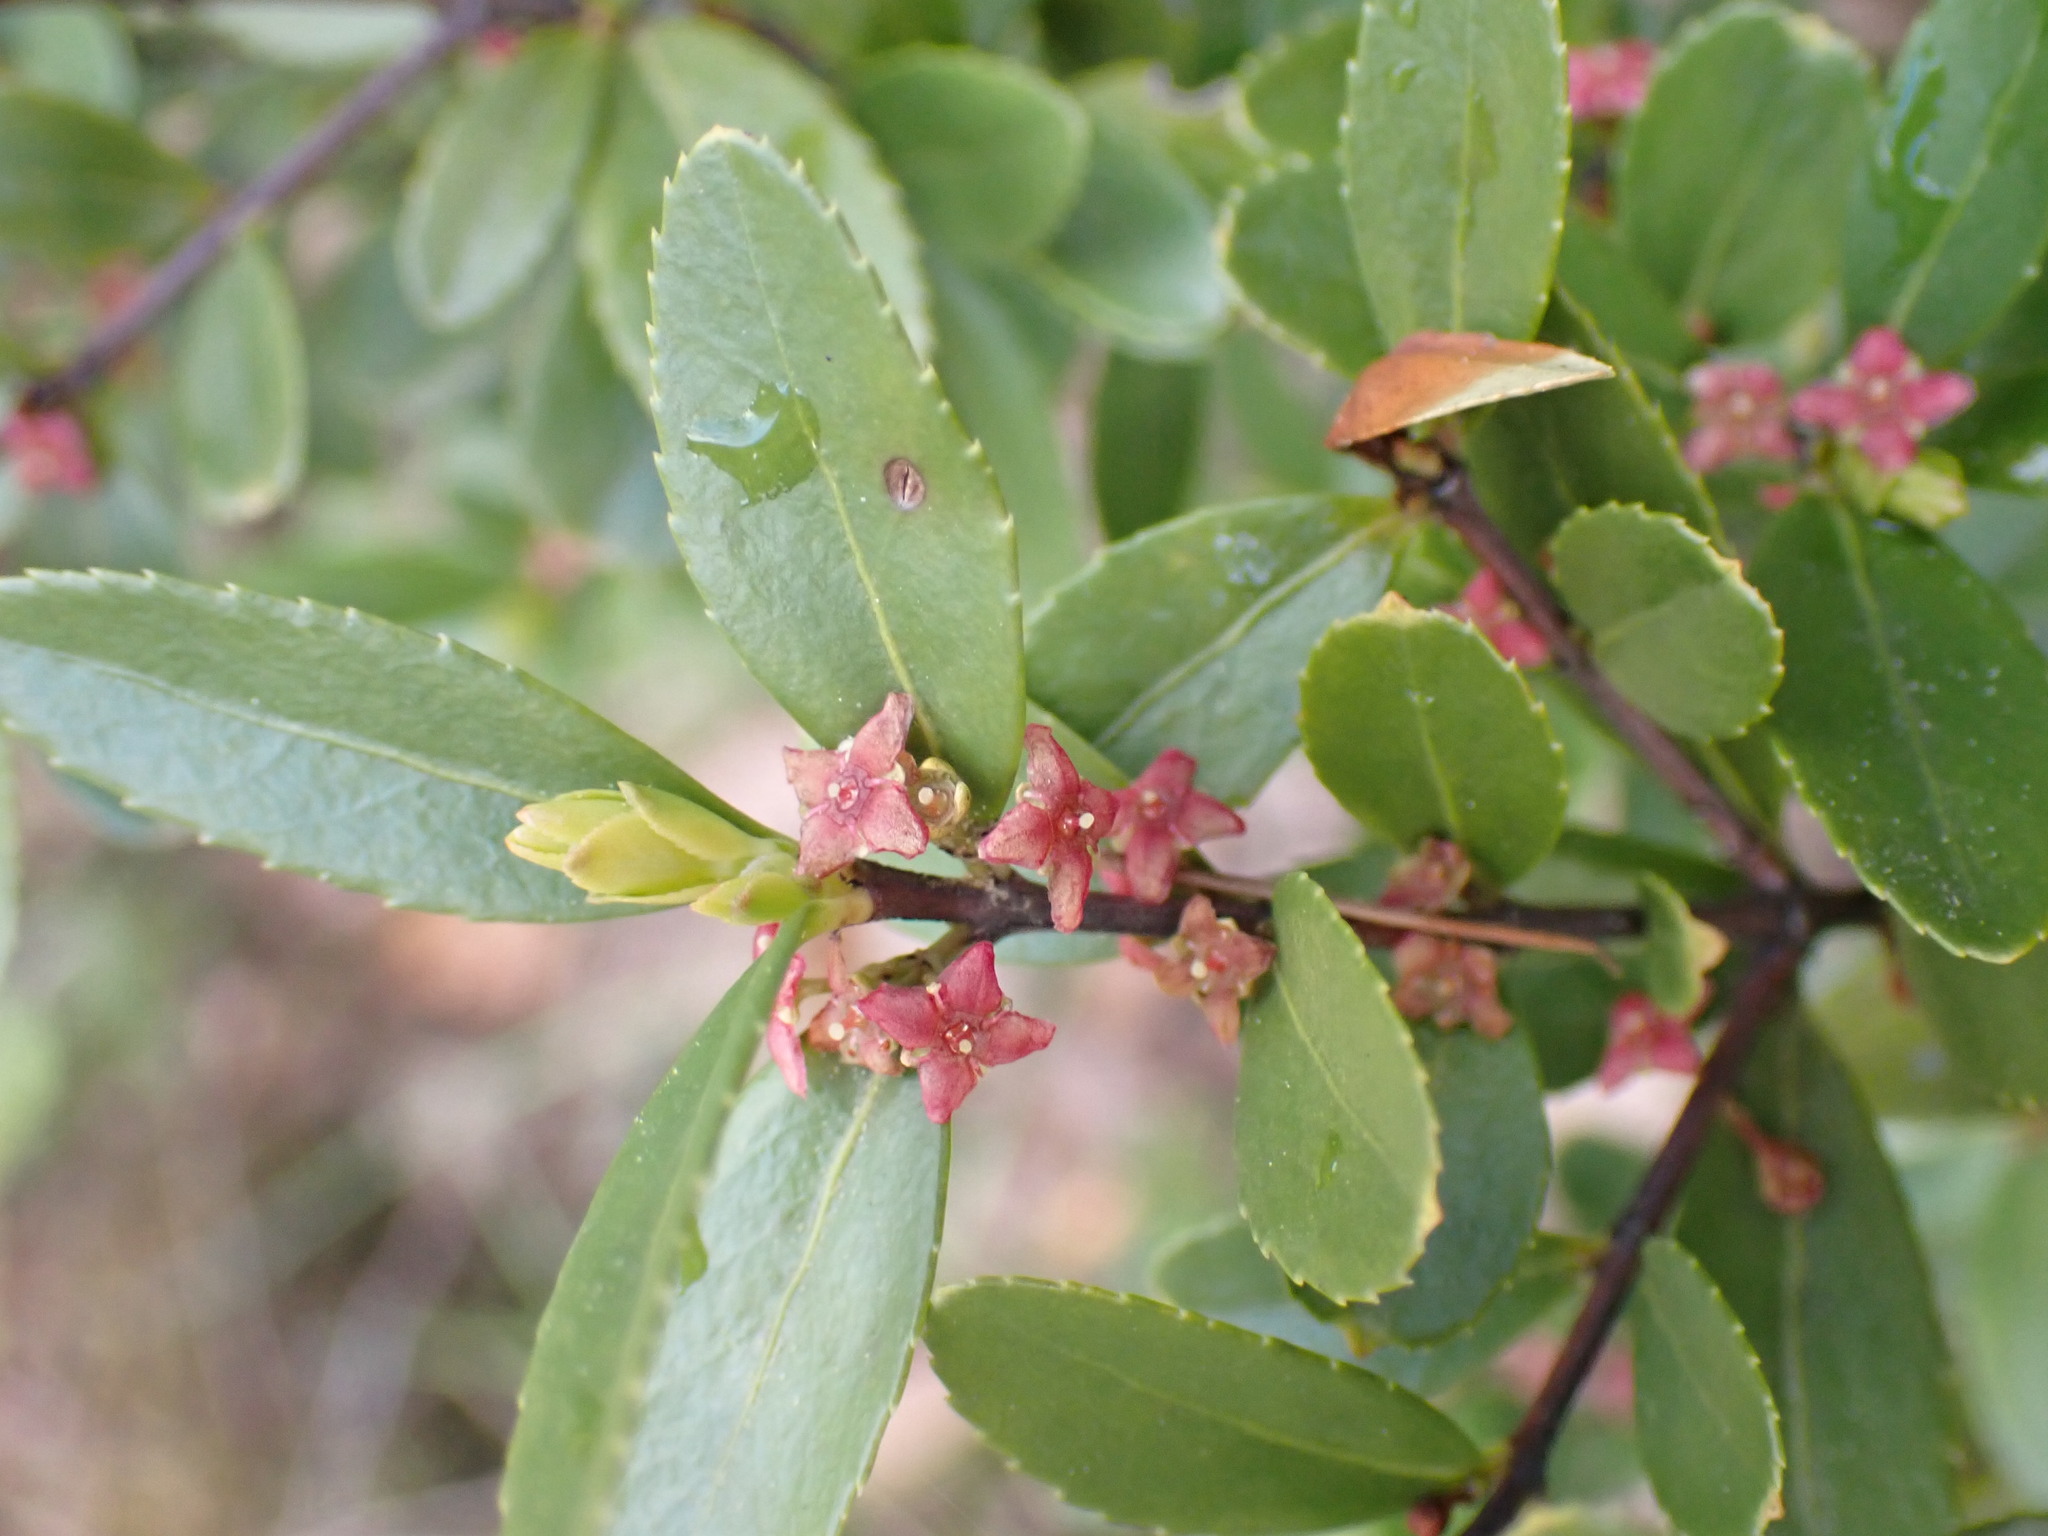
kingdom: Plantae
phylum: Tracheophyta
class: Magnoliopsida
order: Celastrales
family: Celastraceae
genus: Paxistima
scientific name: Paxistima myrsinites
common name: Mountain-lover
